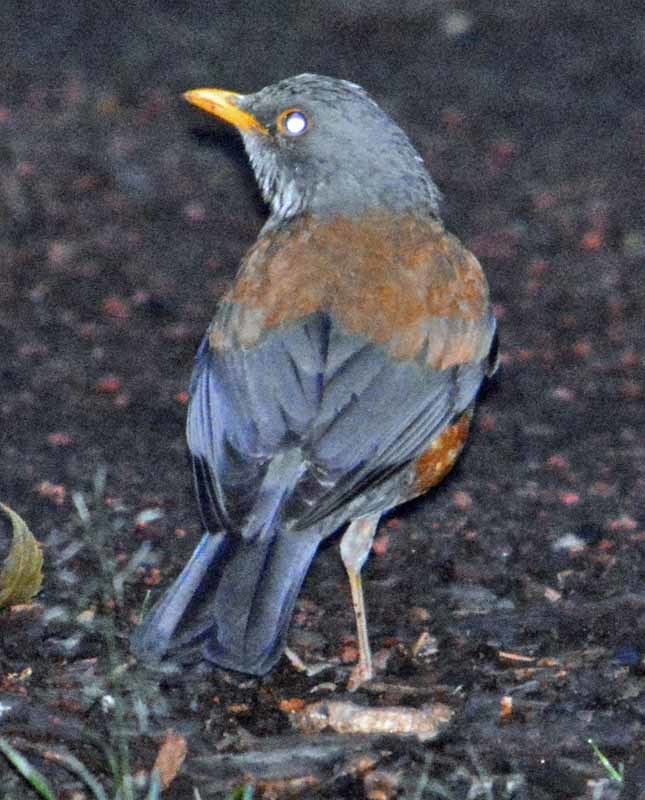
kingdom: Animalia
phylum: Chordata
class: Aves
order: Passeriformes
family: Turdidae
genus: Turdus
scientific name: Turdus rufopalliatus
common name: Rufous-backed robin
